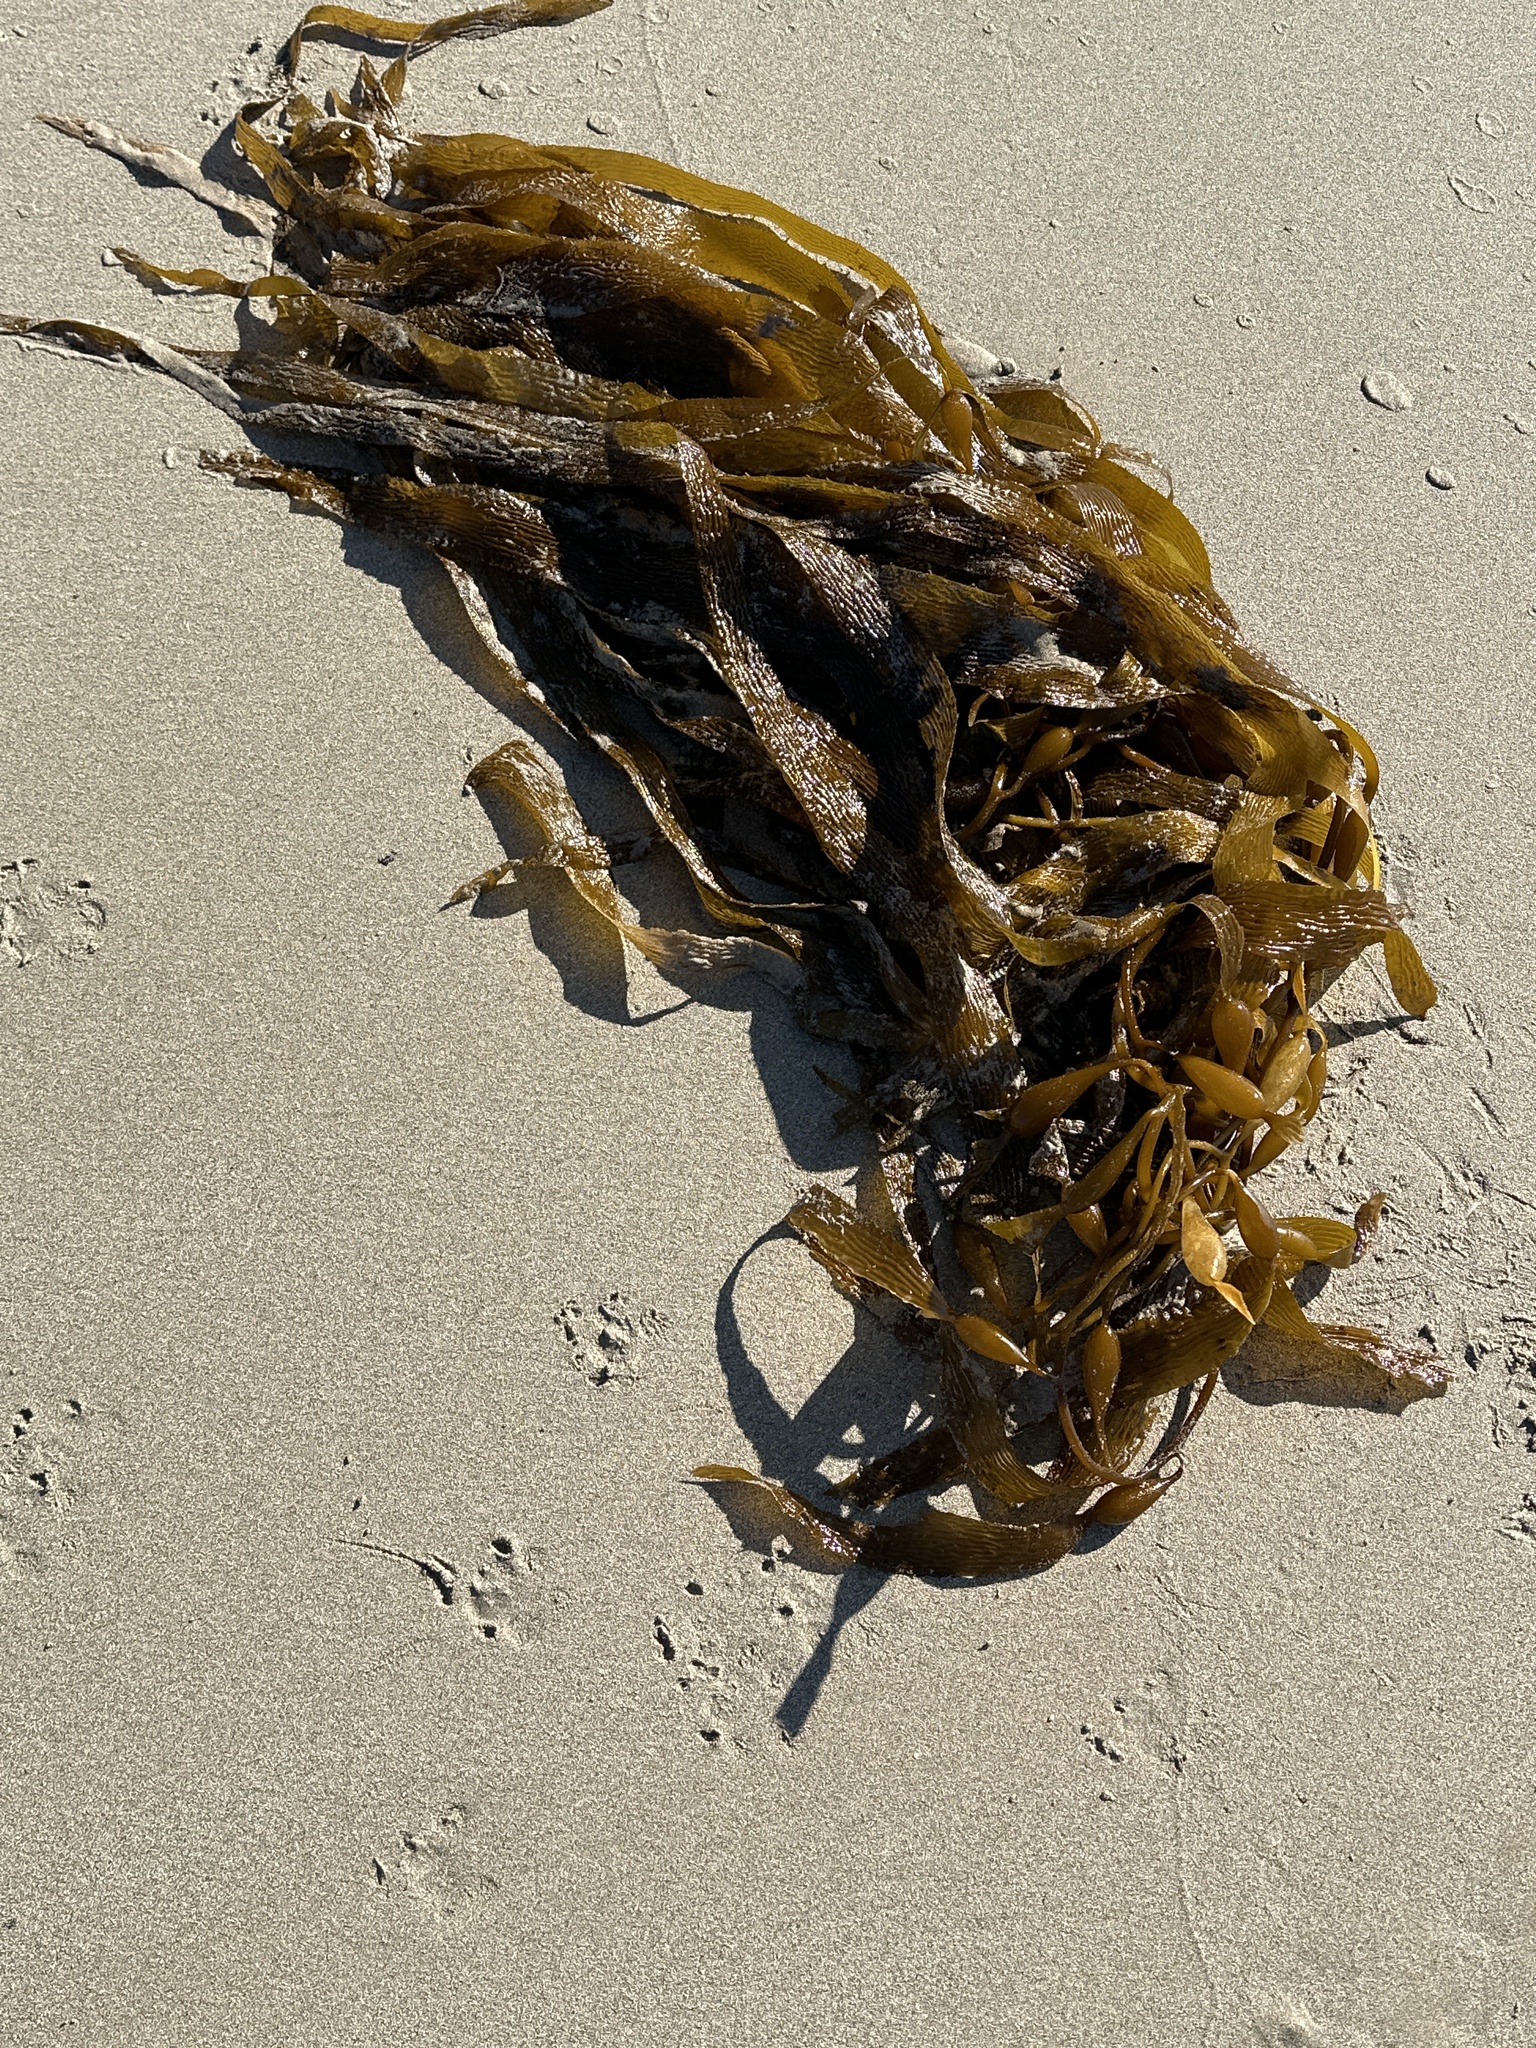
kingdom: Chromista
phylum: Ochrophyta
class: Phaeophyceae
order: Laminariales
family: Laminariaceae
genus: Macrocystis
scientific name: Macrocystis pyrifera
